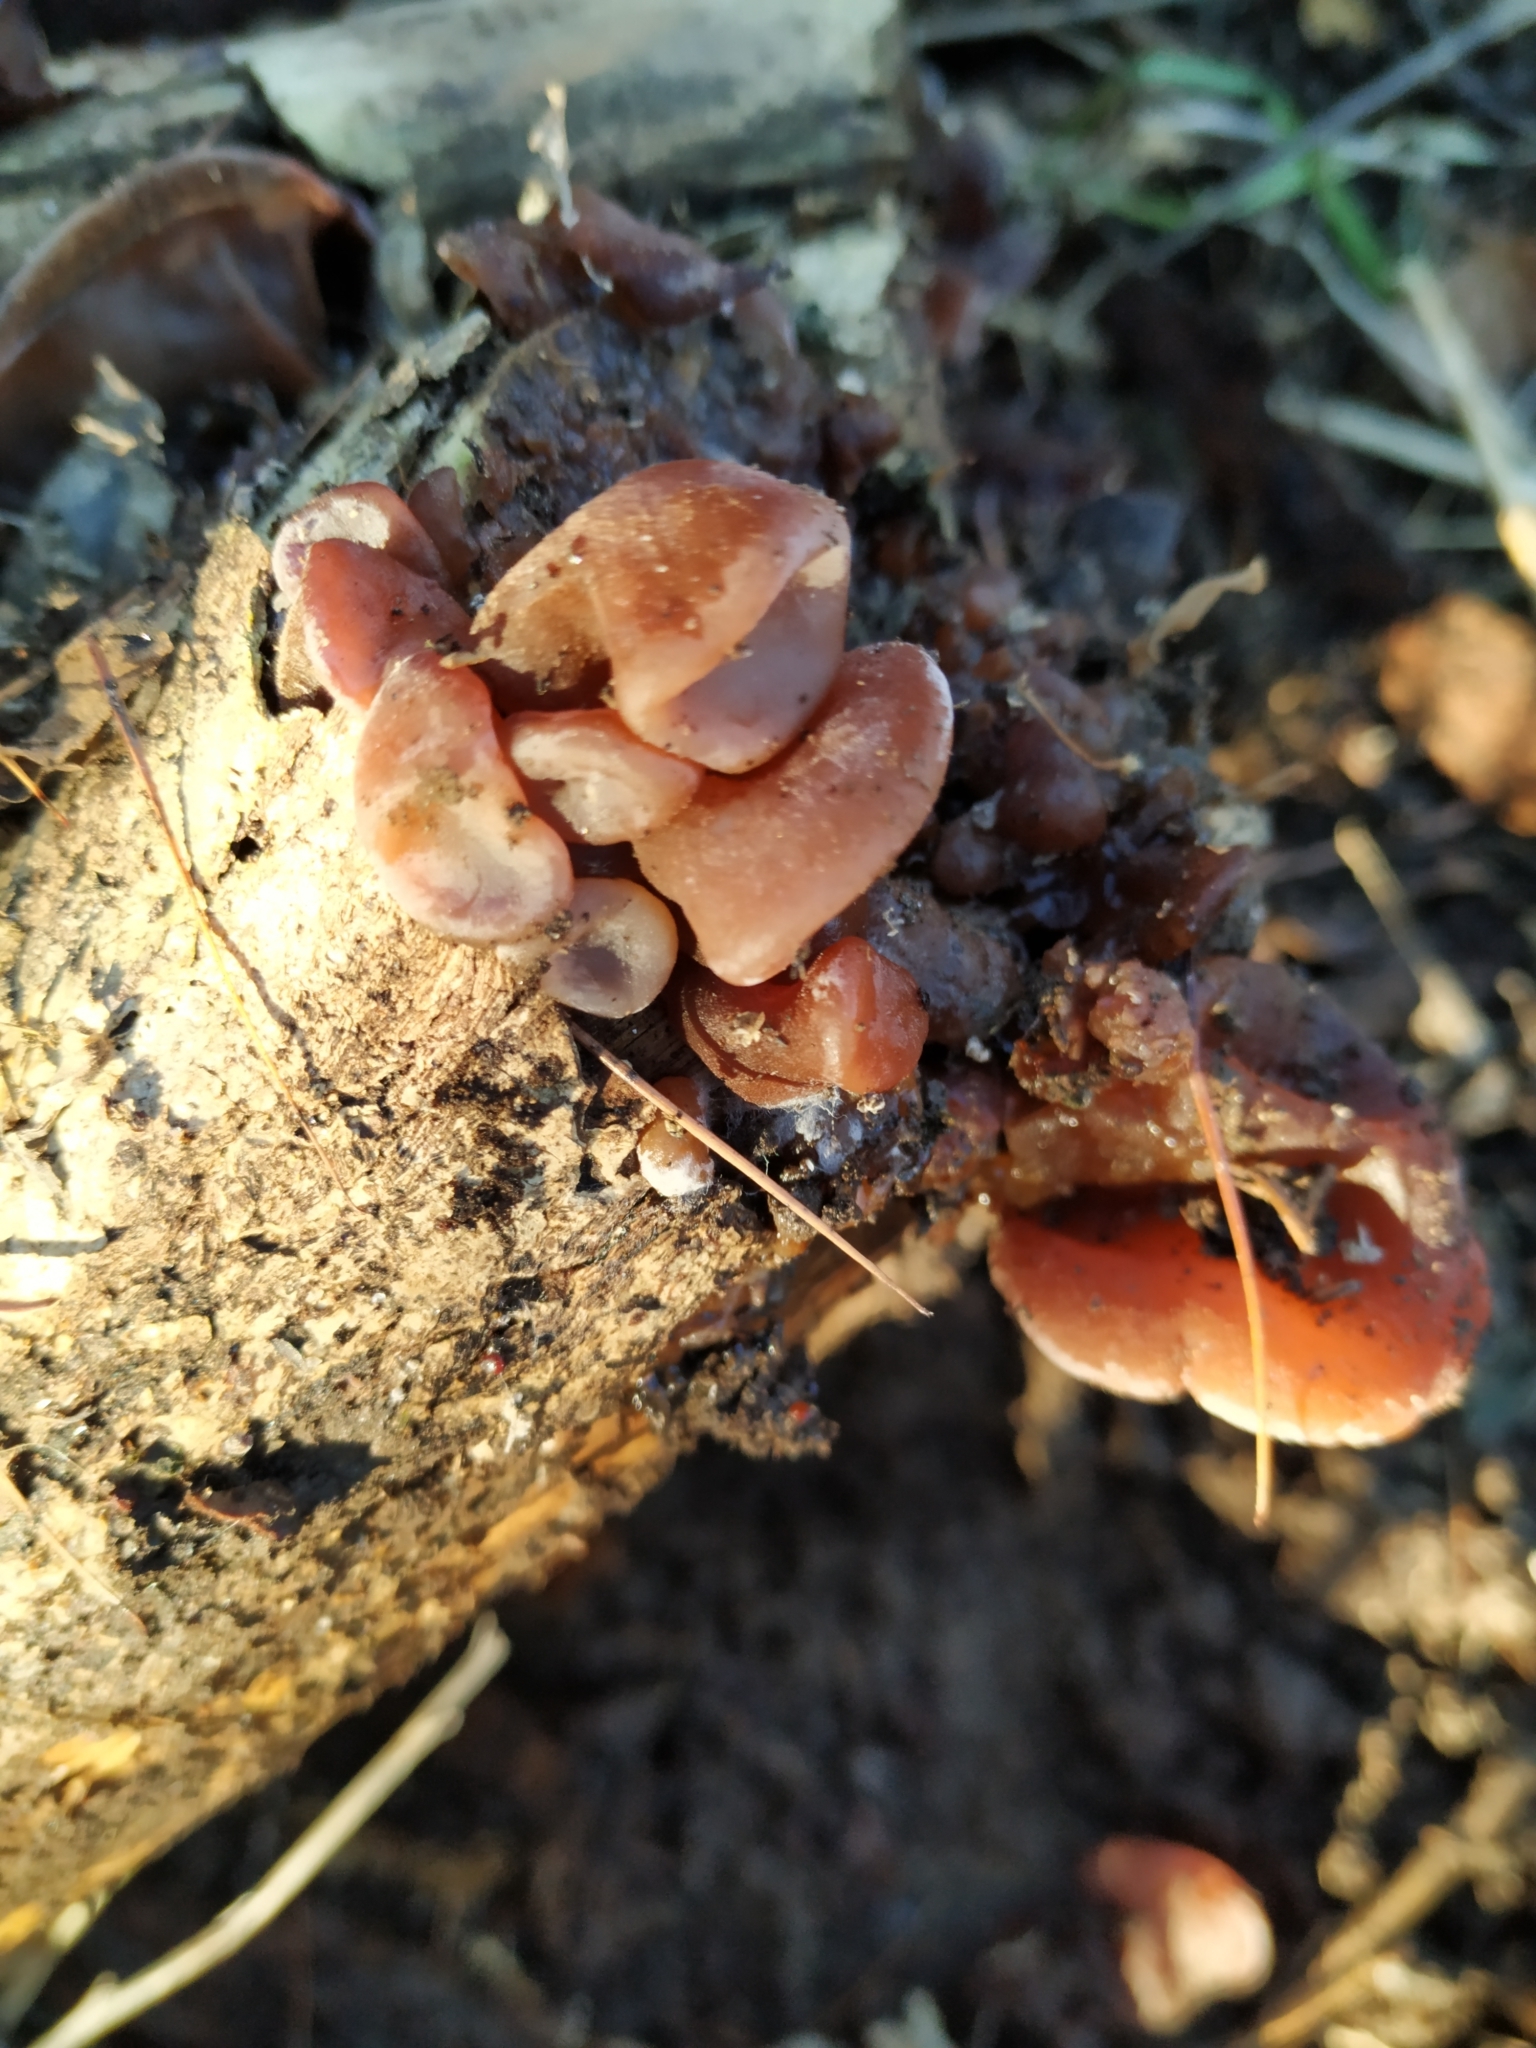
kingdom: Fungi
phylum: Basidiomycota
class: Agaricomycetes
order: Auriculariales
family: Auriculariaceae
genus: Auricularia
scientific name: Auricularia auricula-judae
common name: Jelly ear
